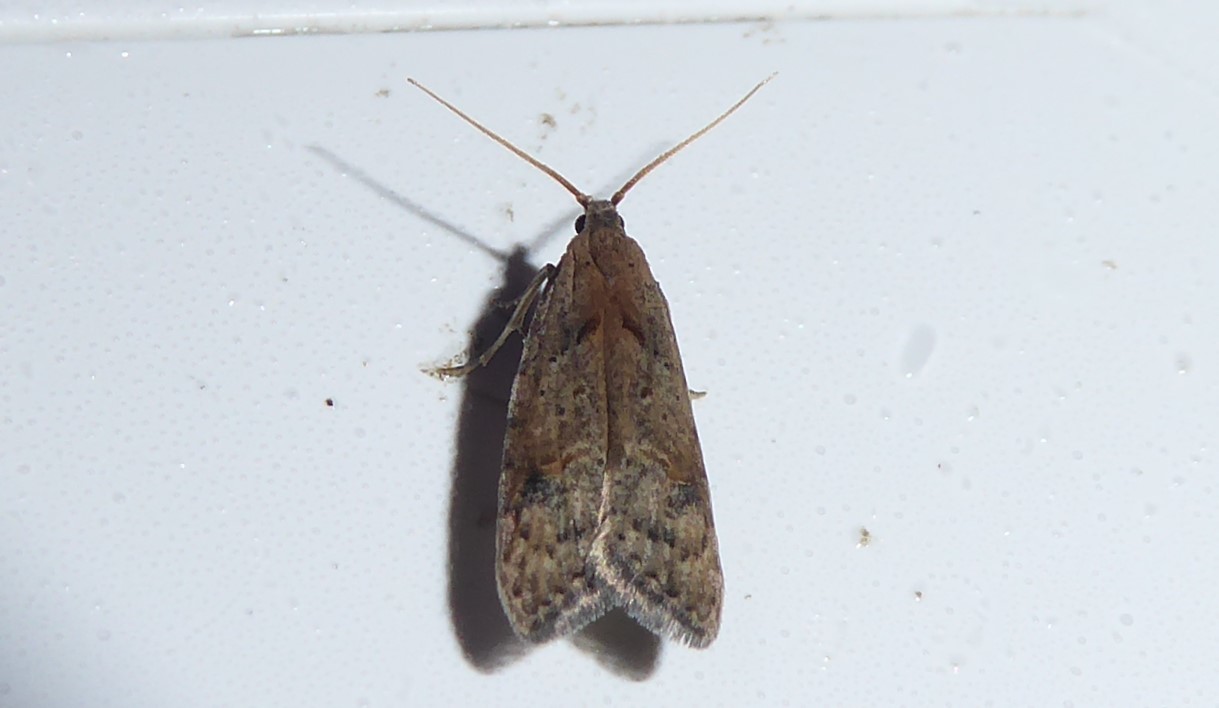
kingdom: Animalia
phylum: Arthropoda
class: Insecta
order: Lepidoptera
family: Carposinidae
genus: Carposina
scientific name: Carposina rubophaga
